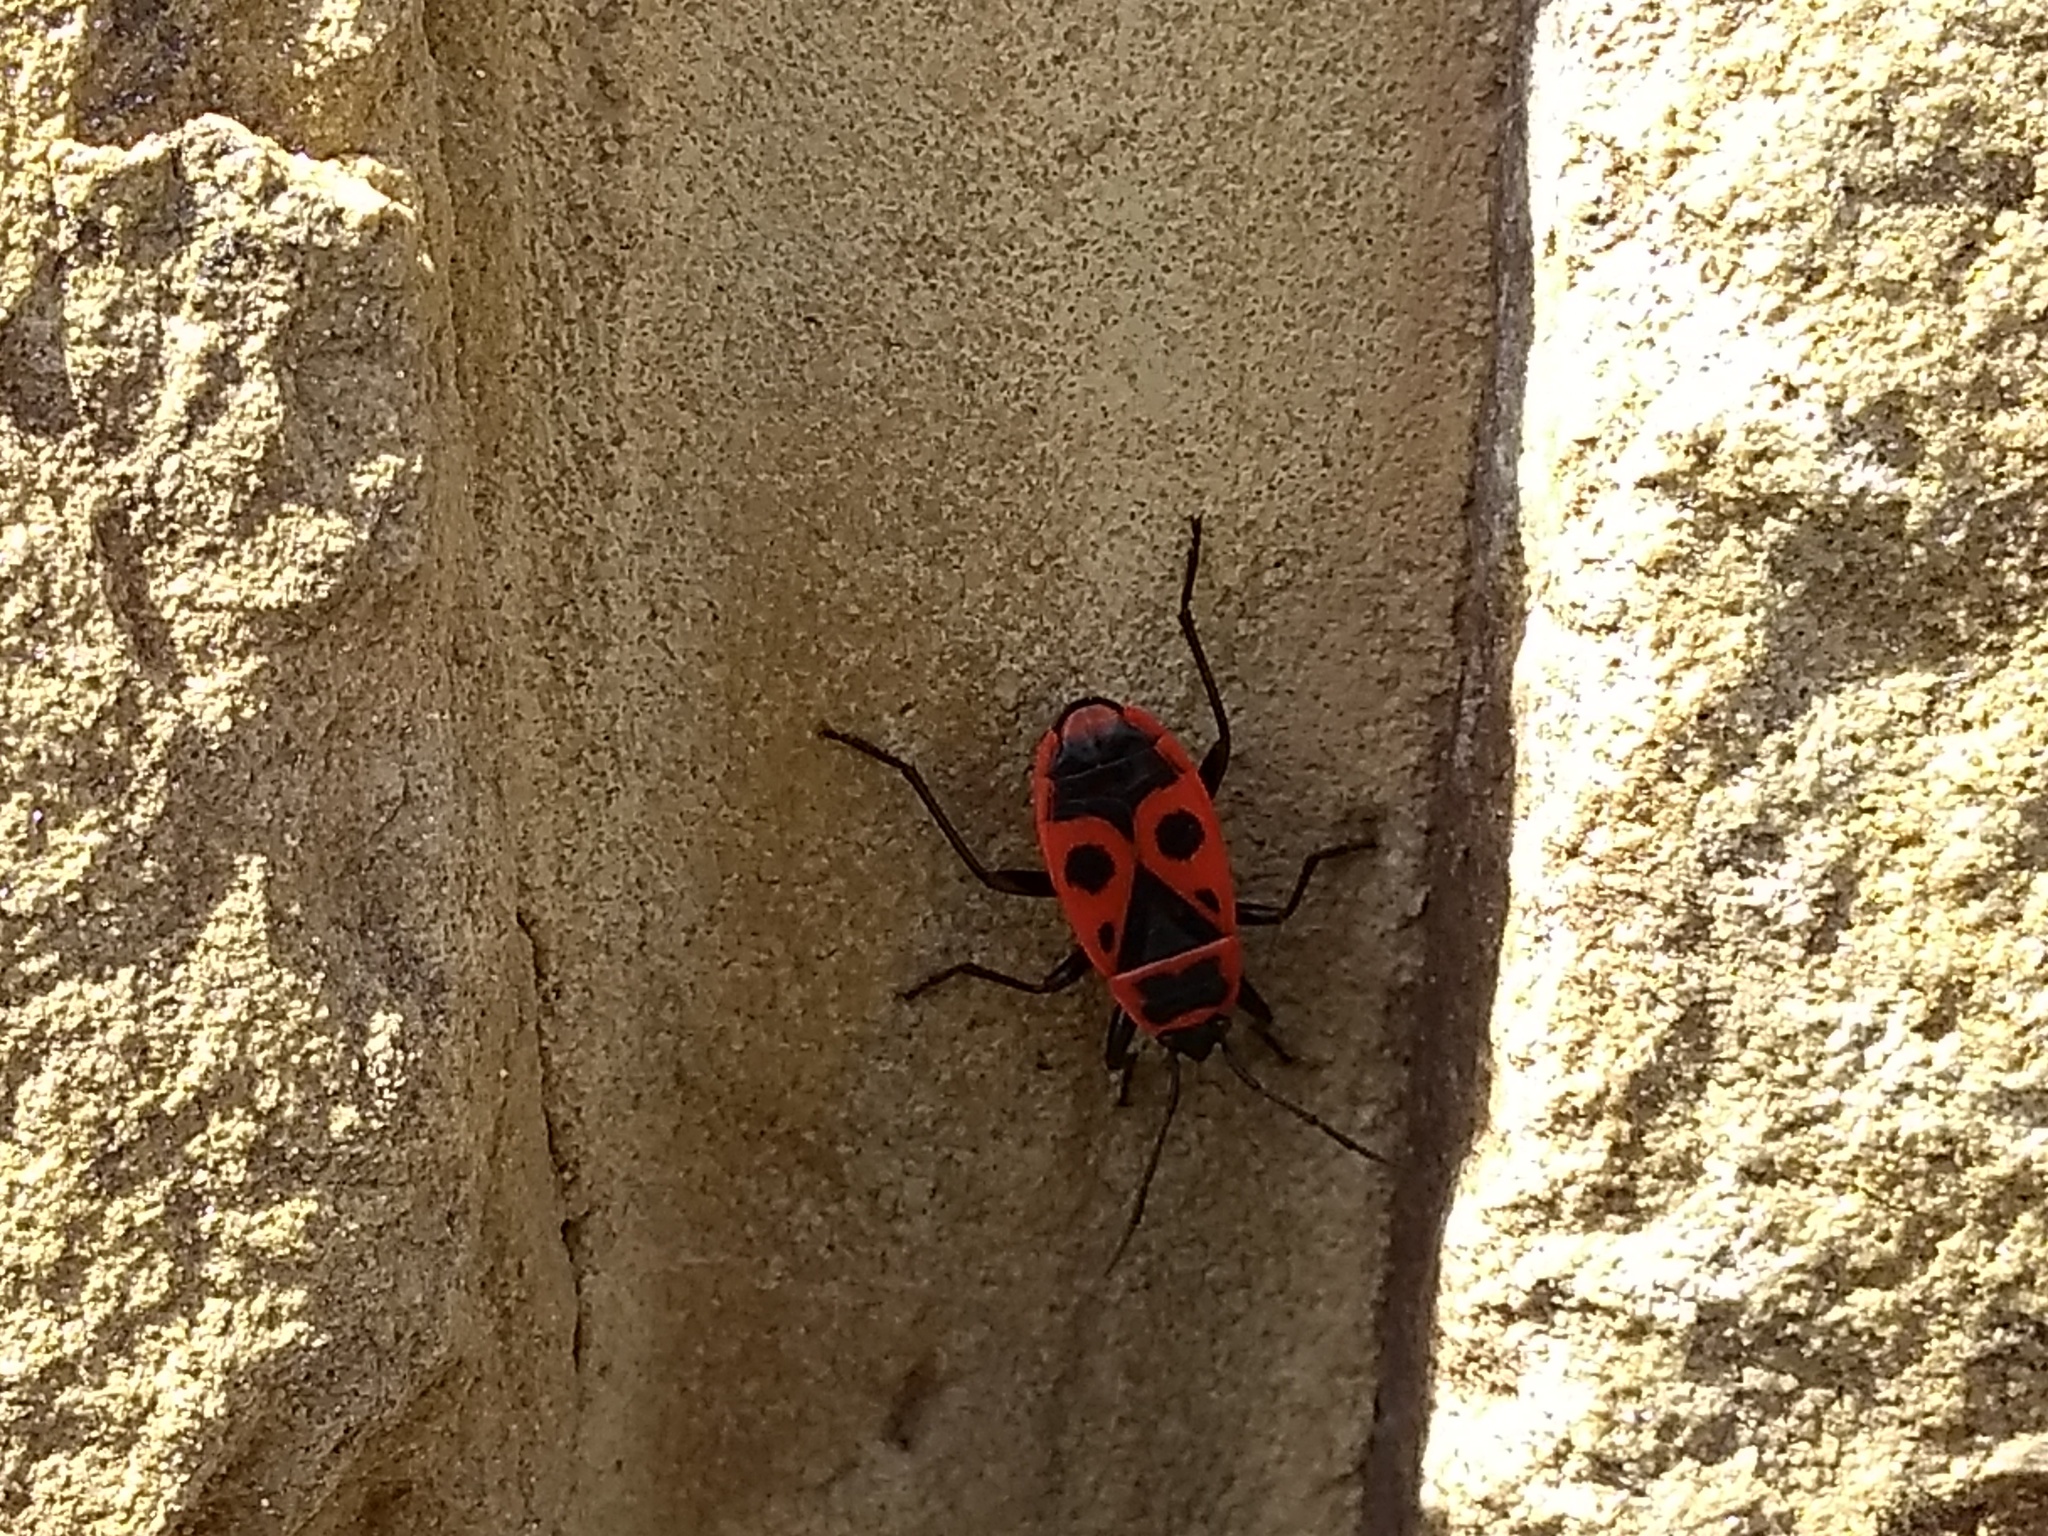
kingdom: Animalia
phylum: Arthropoda
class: Insecta
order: Hemiptera
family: Pyrrhocoridae
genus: Pyrrhocoris
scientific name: Pyrrhocoris apterus
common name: Firebug
